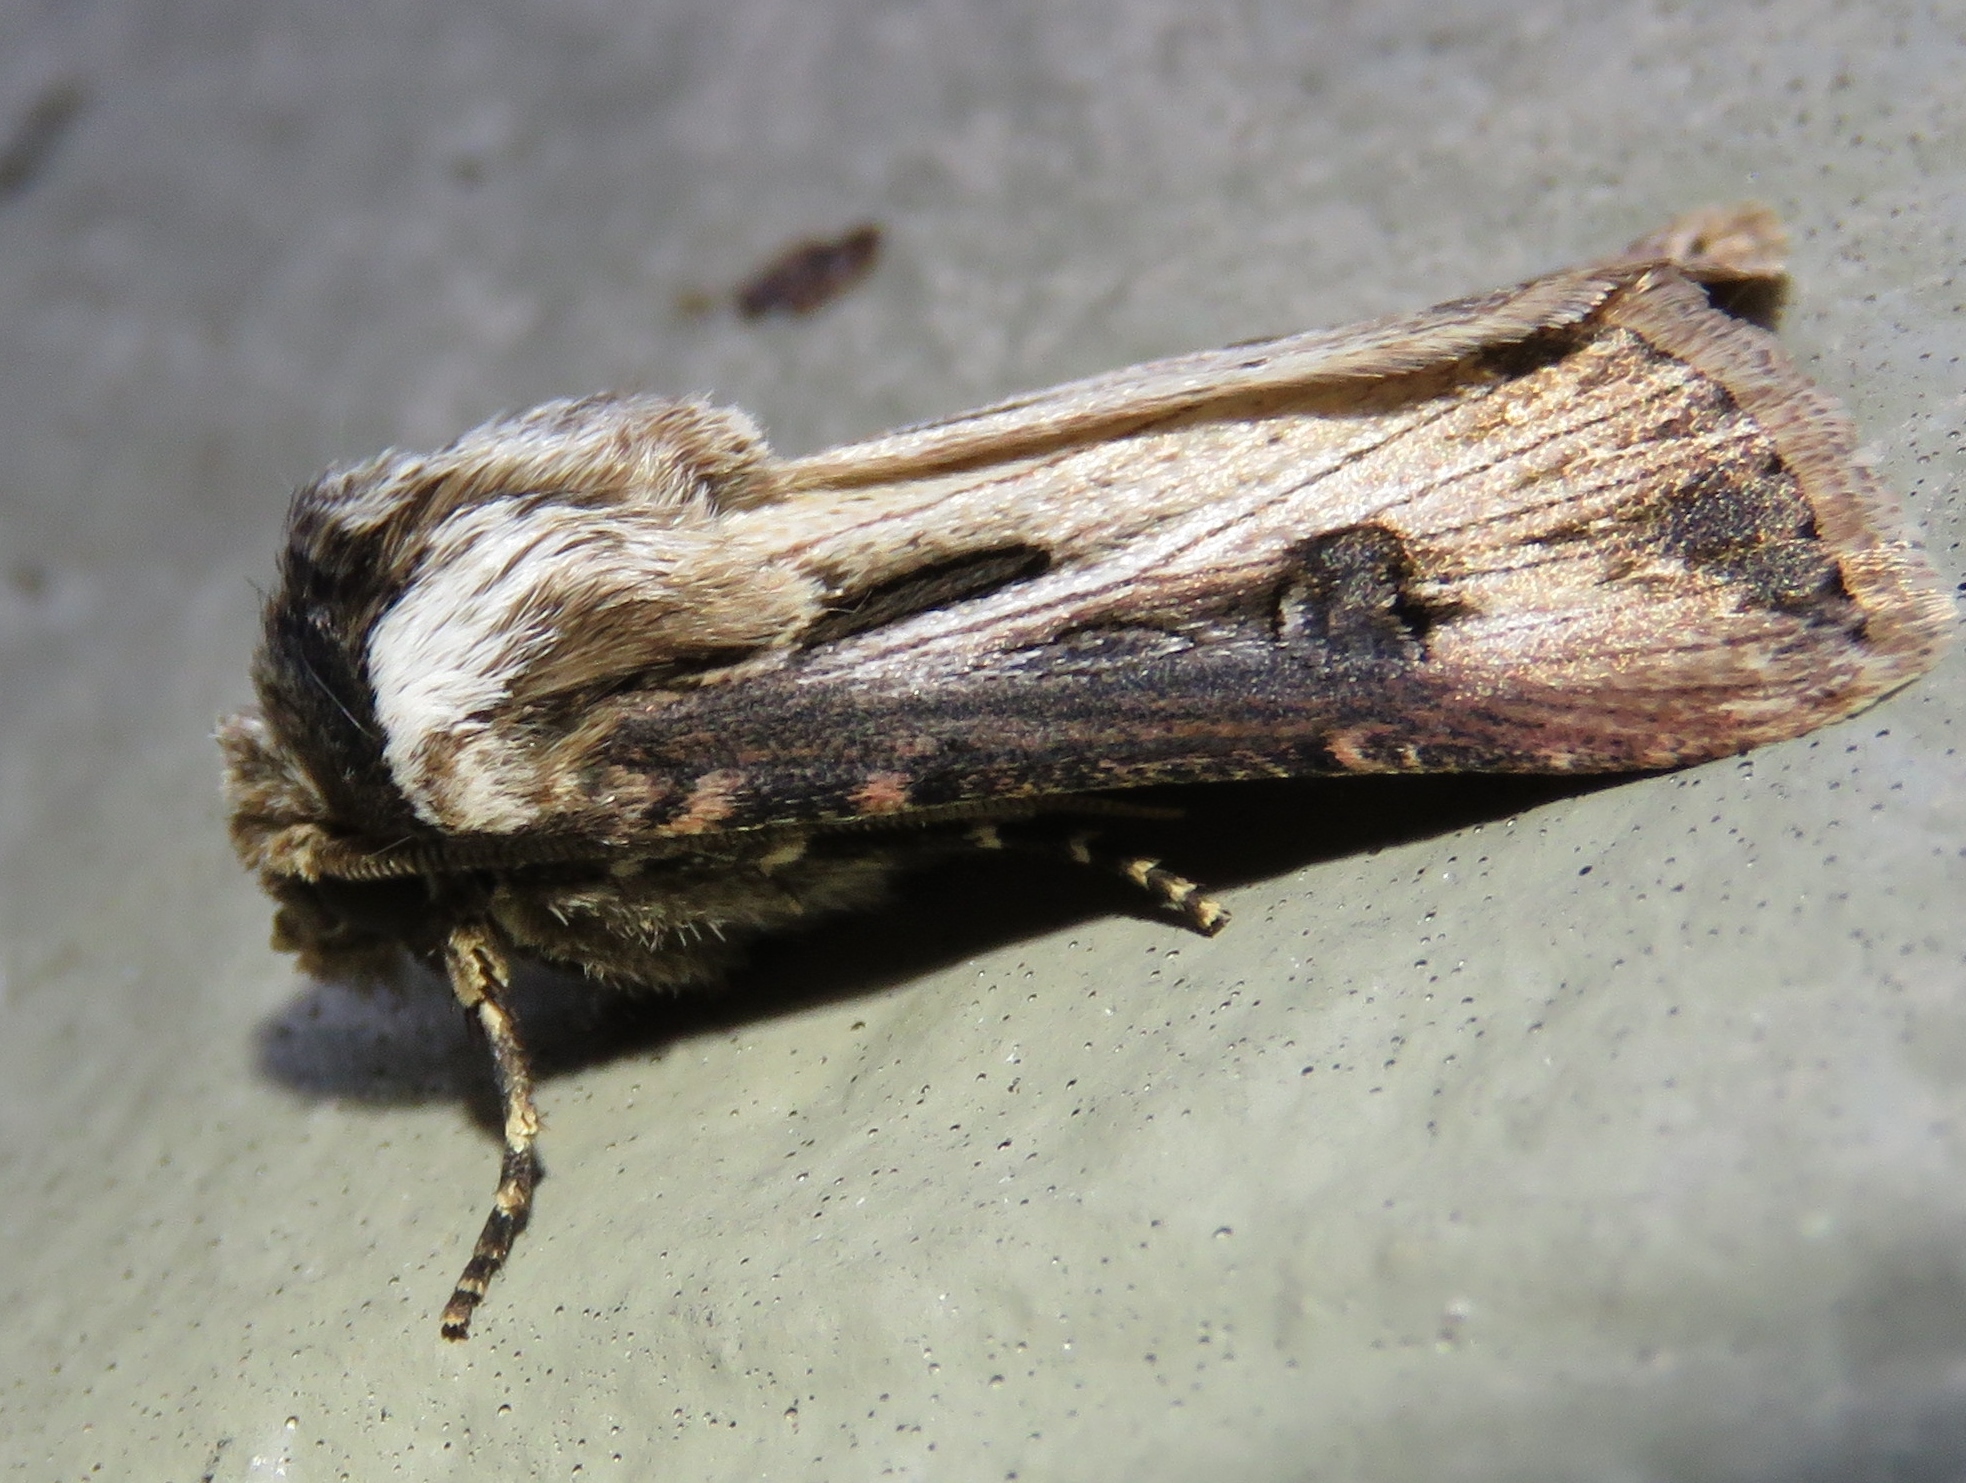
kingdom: Animalia
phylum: Arthropoda
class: Insecta
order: Lepidoptera
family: Noctuidae
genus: Agrotis
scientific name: Agrotis venerabilis
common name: Venerable dart
